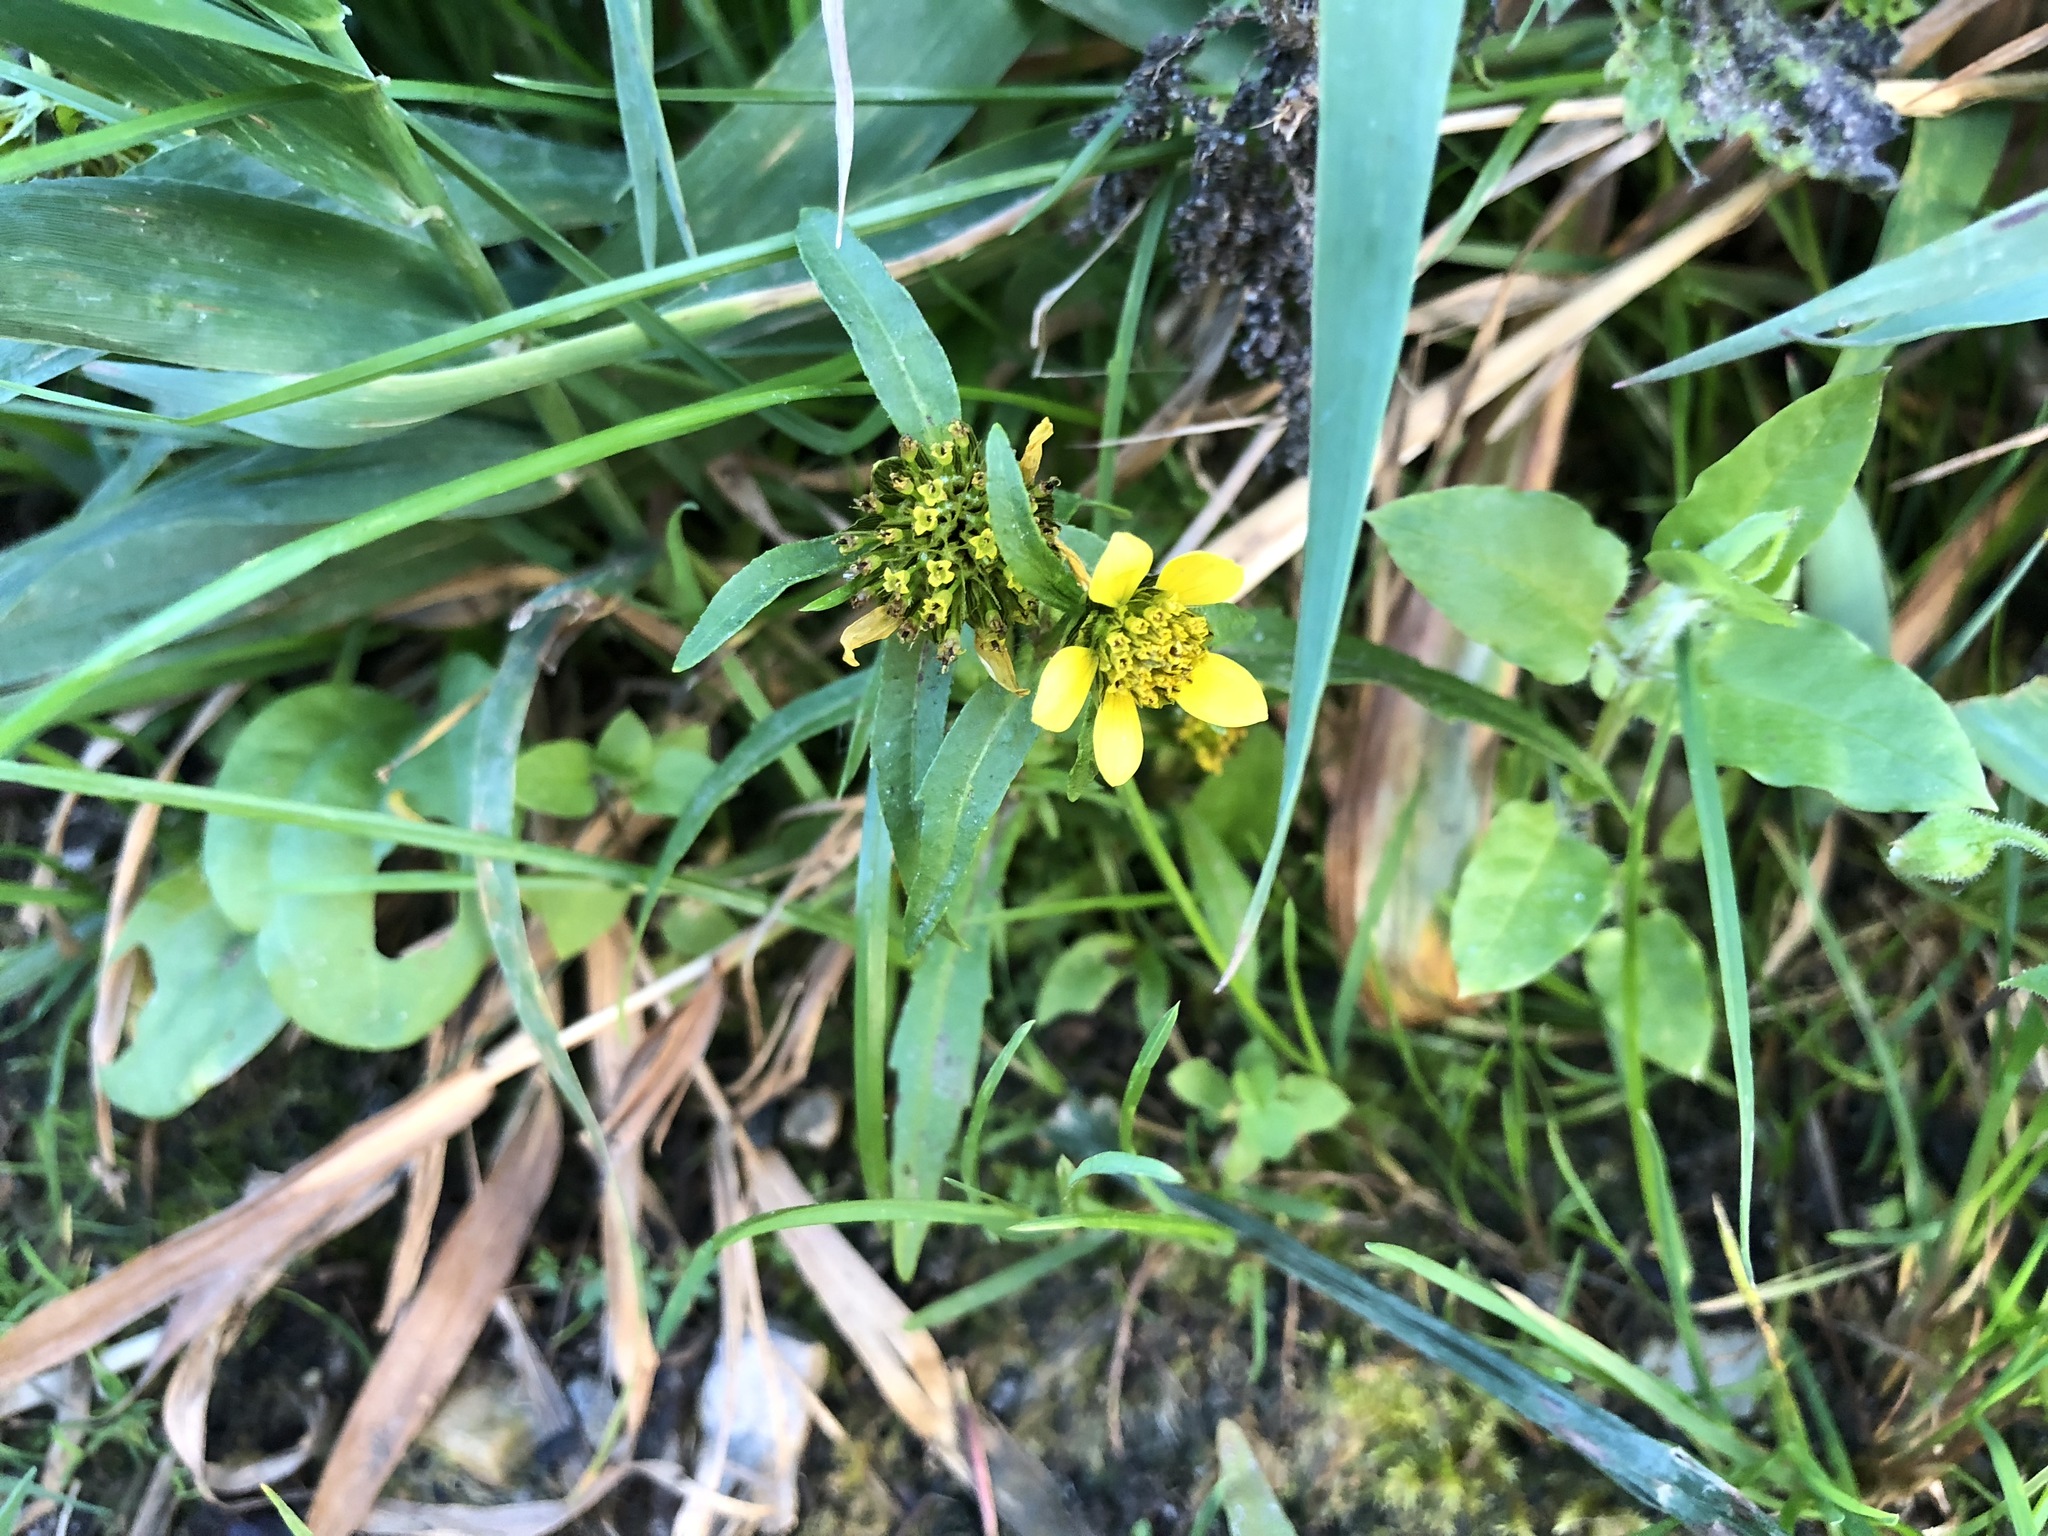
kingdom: Plantae
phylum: Tracheophyta
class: Magnoliopsida
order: Asterales
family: Asteraceae
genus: Bidens
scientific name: Bidens cernua
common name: Nodding bur-marigold
